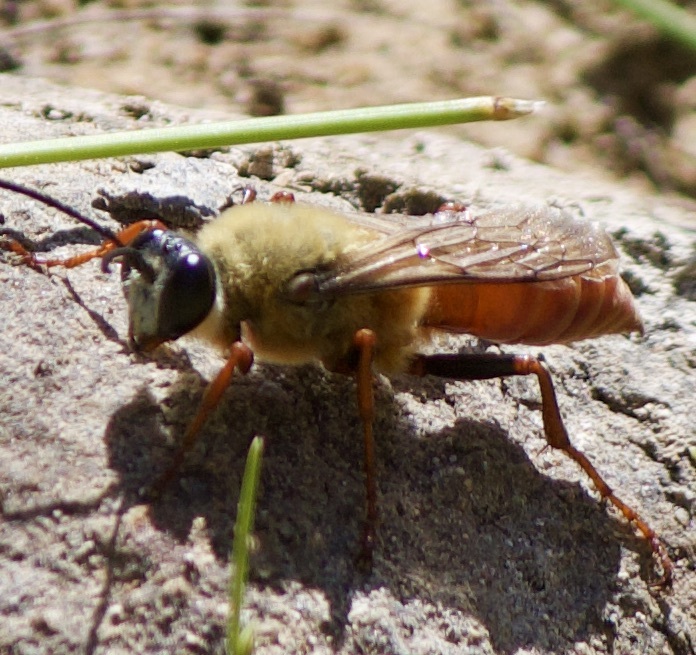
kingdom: Animalia
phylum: Arthropoda
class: Insecta
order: Hymenoptera
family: Sphecidae
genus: Sphex
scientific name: Sphex latreillei
